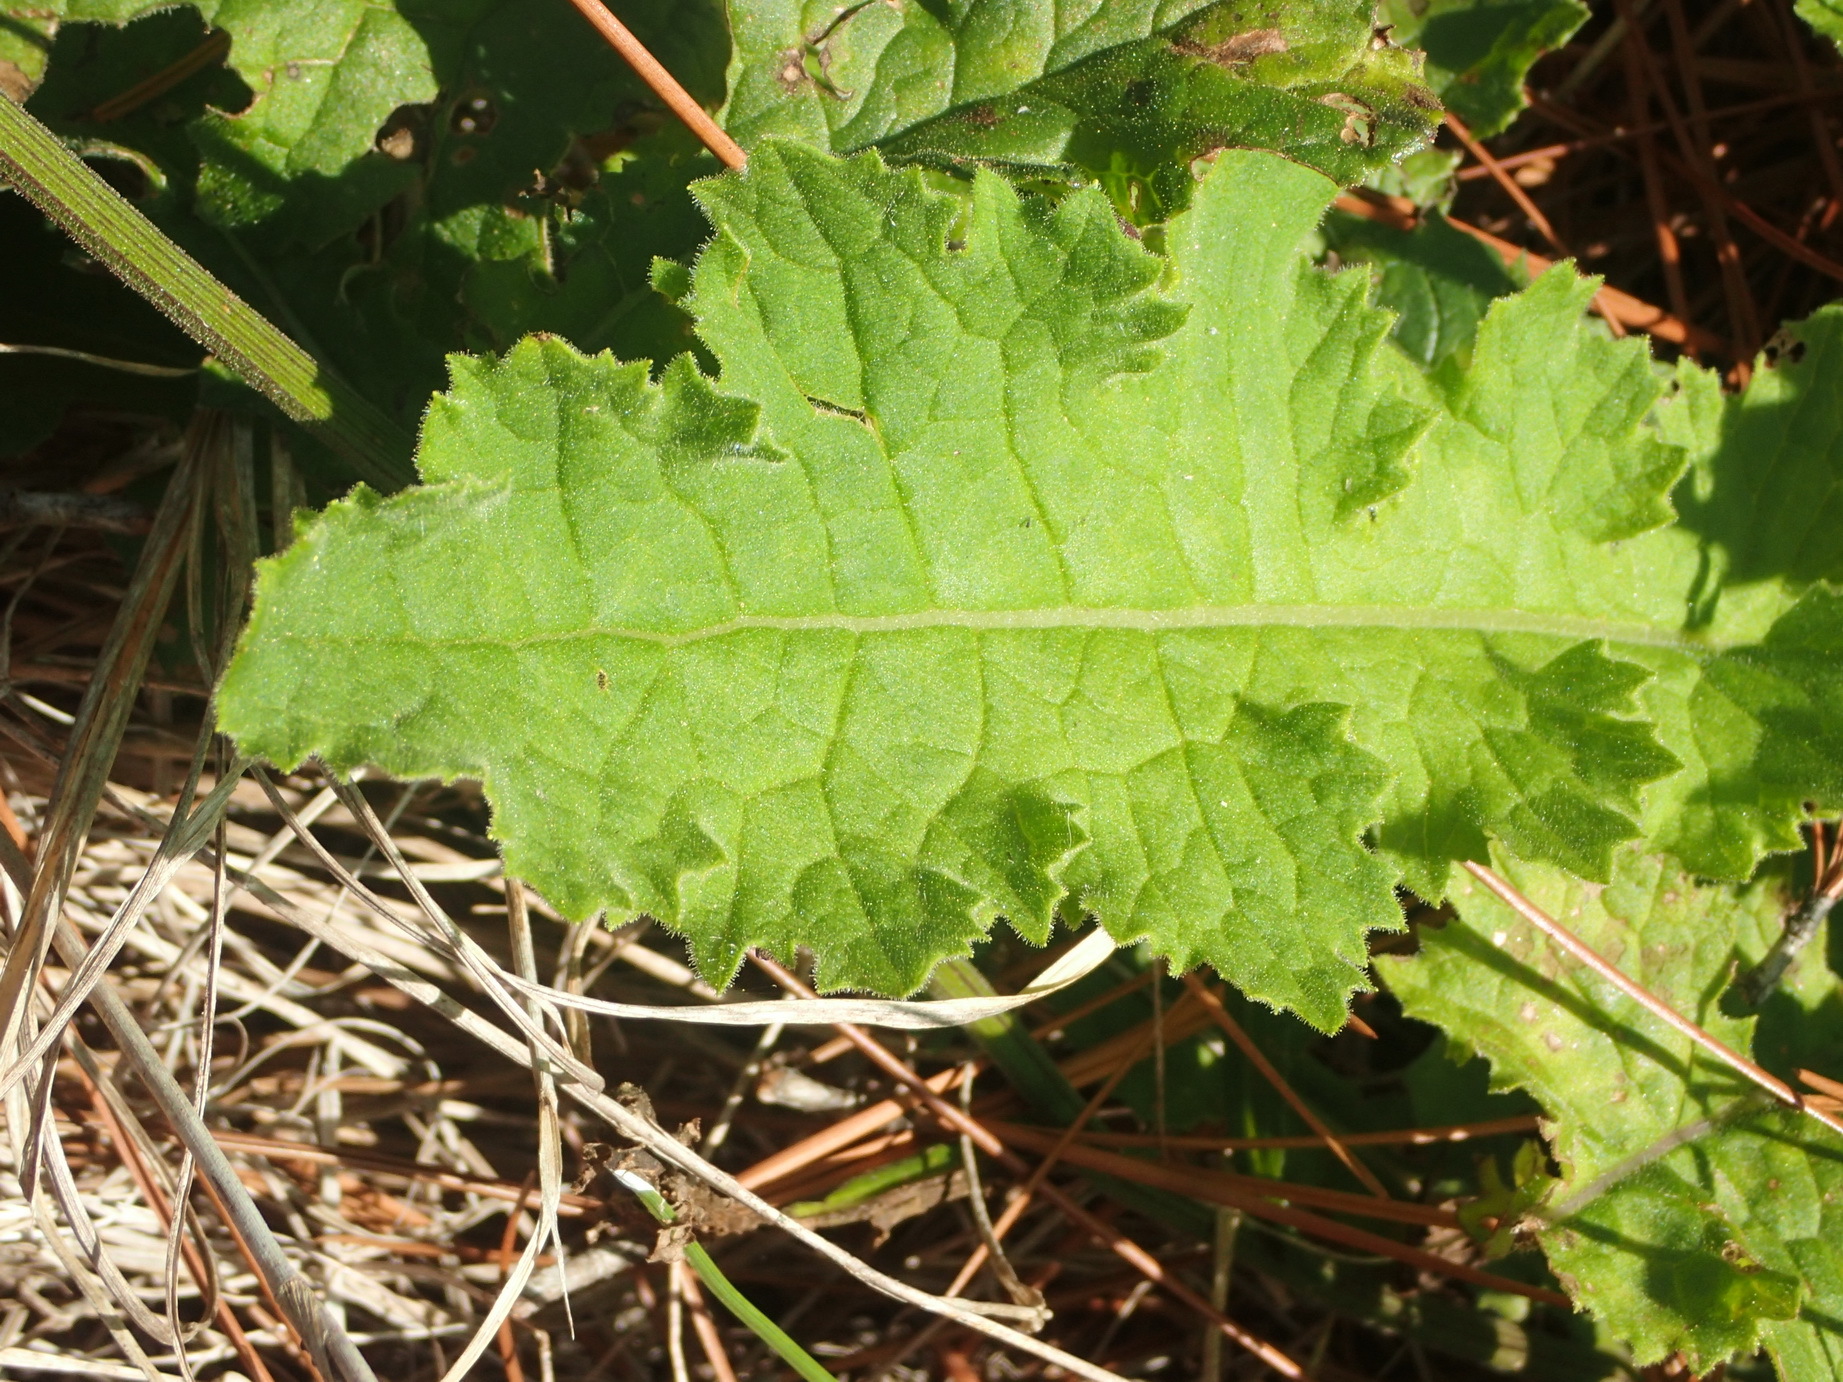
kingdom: Plantae
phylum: Tracheophyta
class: Magnoliopsida
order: Asterales
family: Asteraceae
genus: Senecio
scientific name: Senecio purpureus
